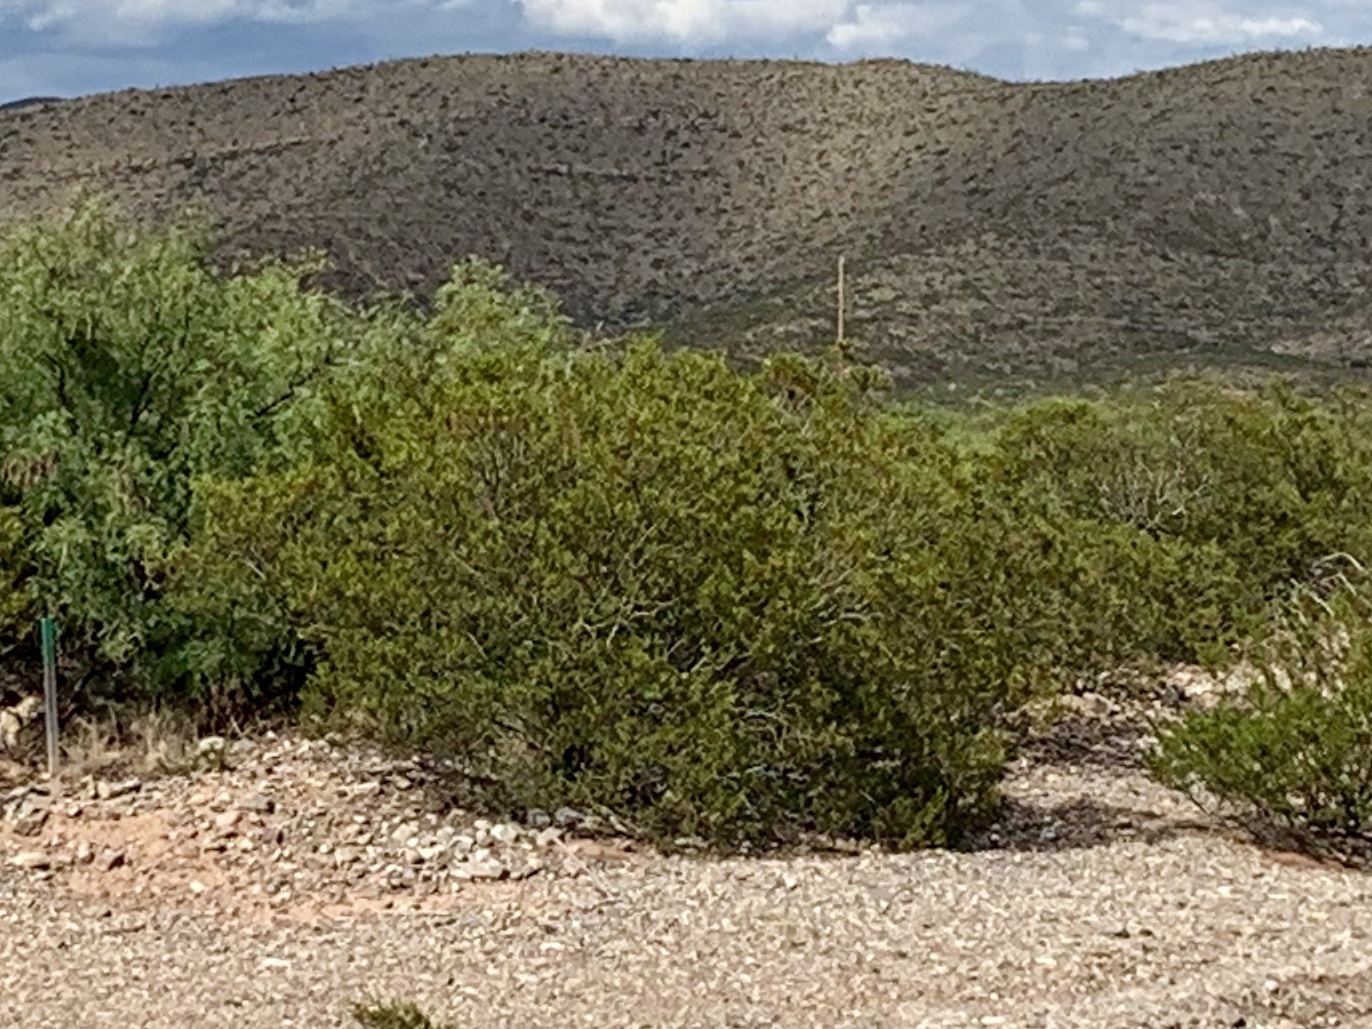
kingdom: Plantae
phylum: Tracheophyta
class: Magnoliopsida
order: Zygophyllales
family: Zygophyllaceae
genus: Larrea
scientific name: Larrea tridentata
